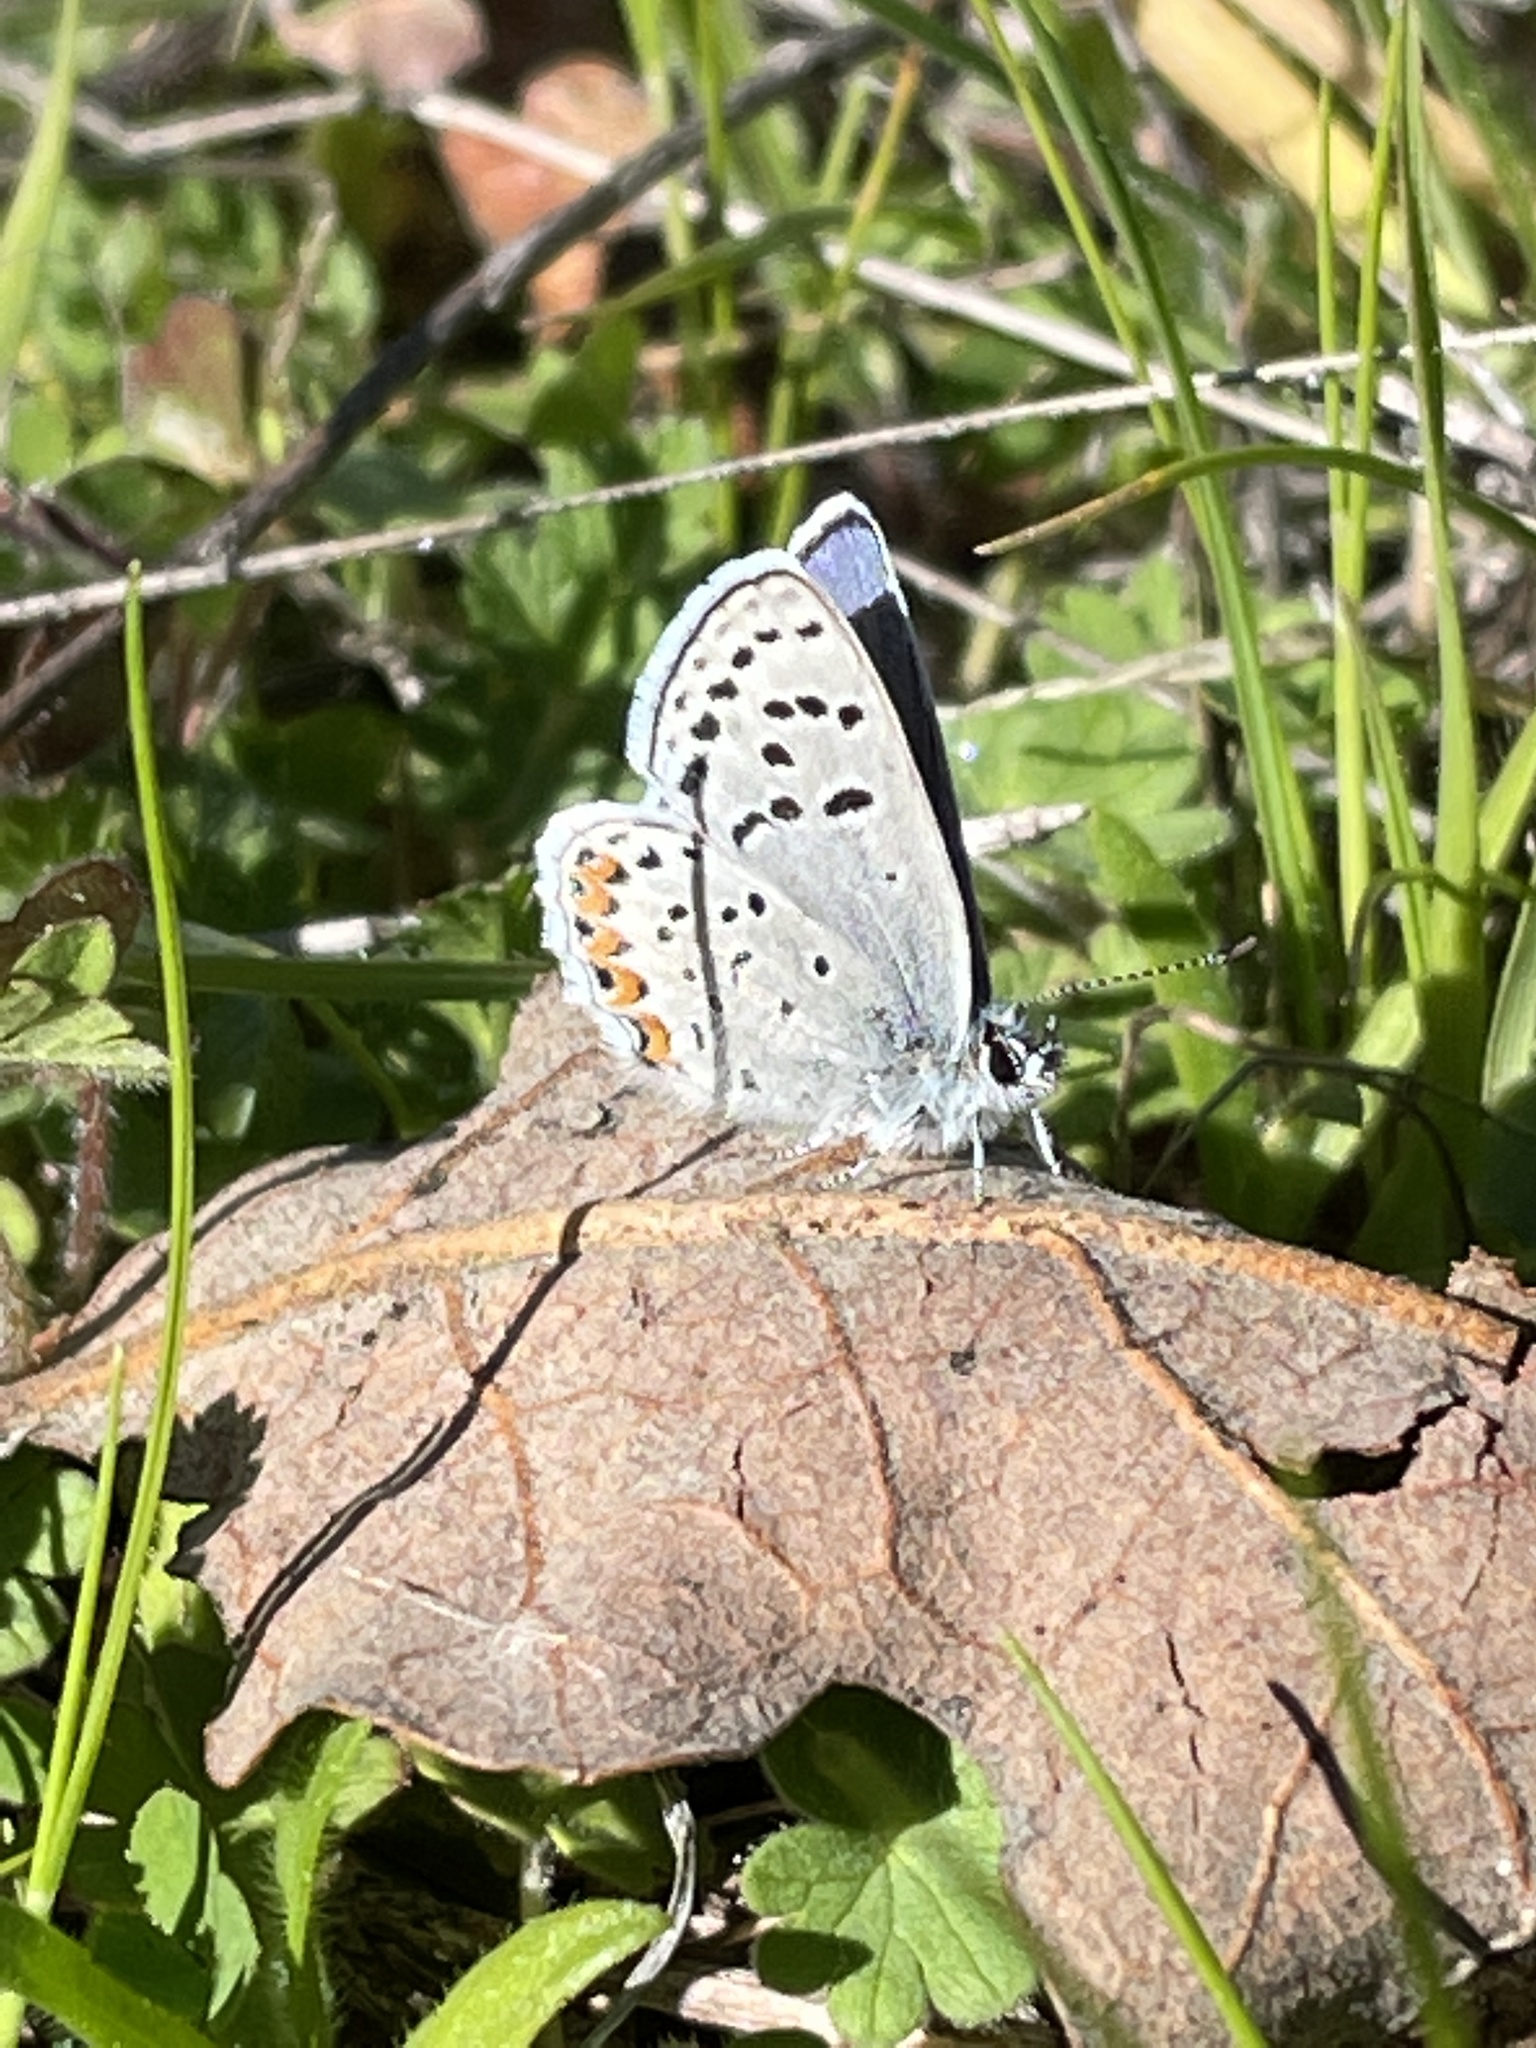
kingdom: Animalia
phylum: Arthropoda
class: Insecta
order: Lepidoptera
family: Lycaenidae
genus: Icaricia
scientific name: Icaricia acmon
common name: Acmon blue
